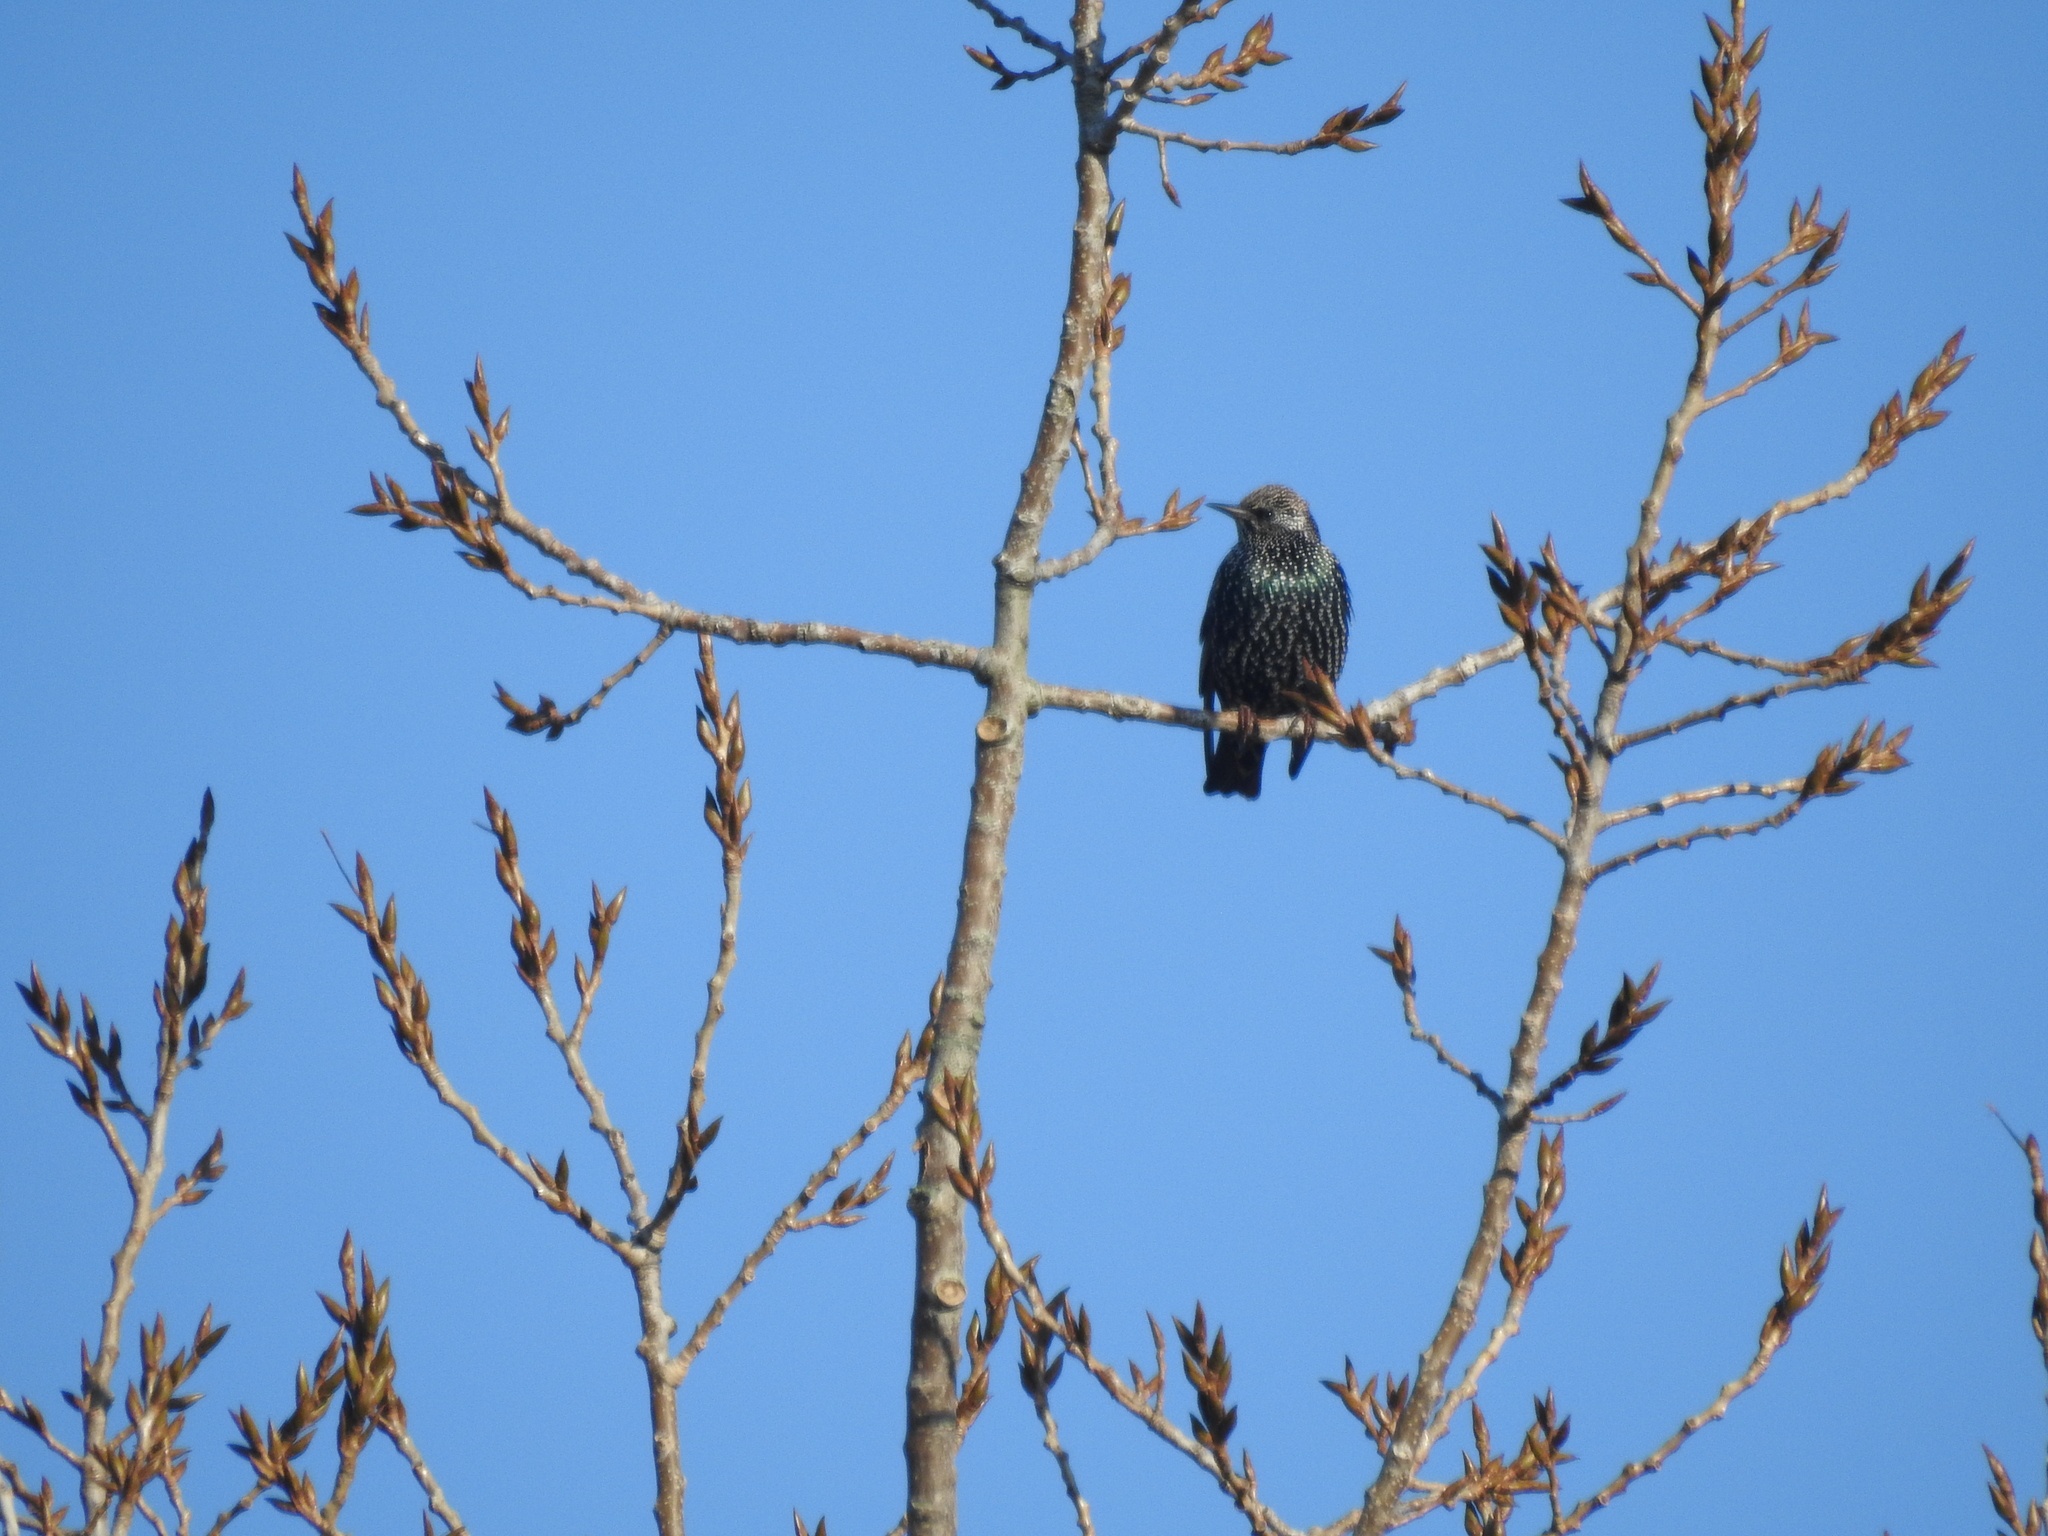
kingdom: Animalia
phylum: Chordata
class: Aves
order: Passeriformes
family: Sturnidae
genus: Sturnus
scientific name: Sturnus vulgaris
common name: Common starling
